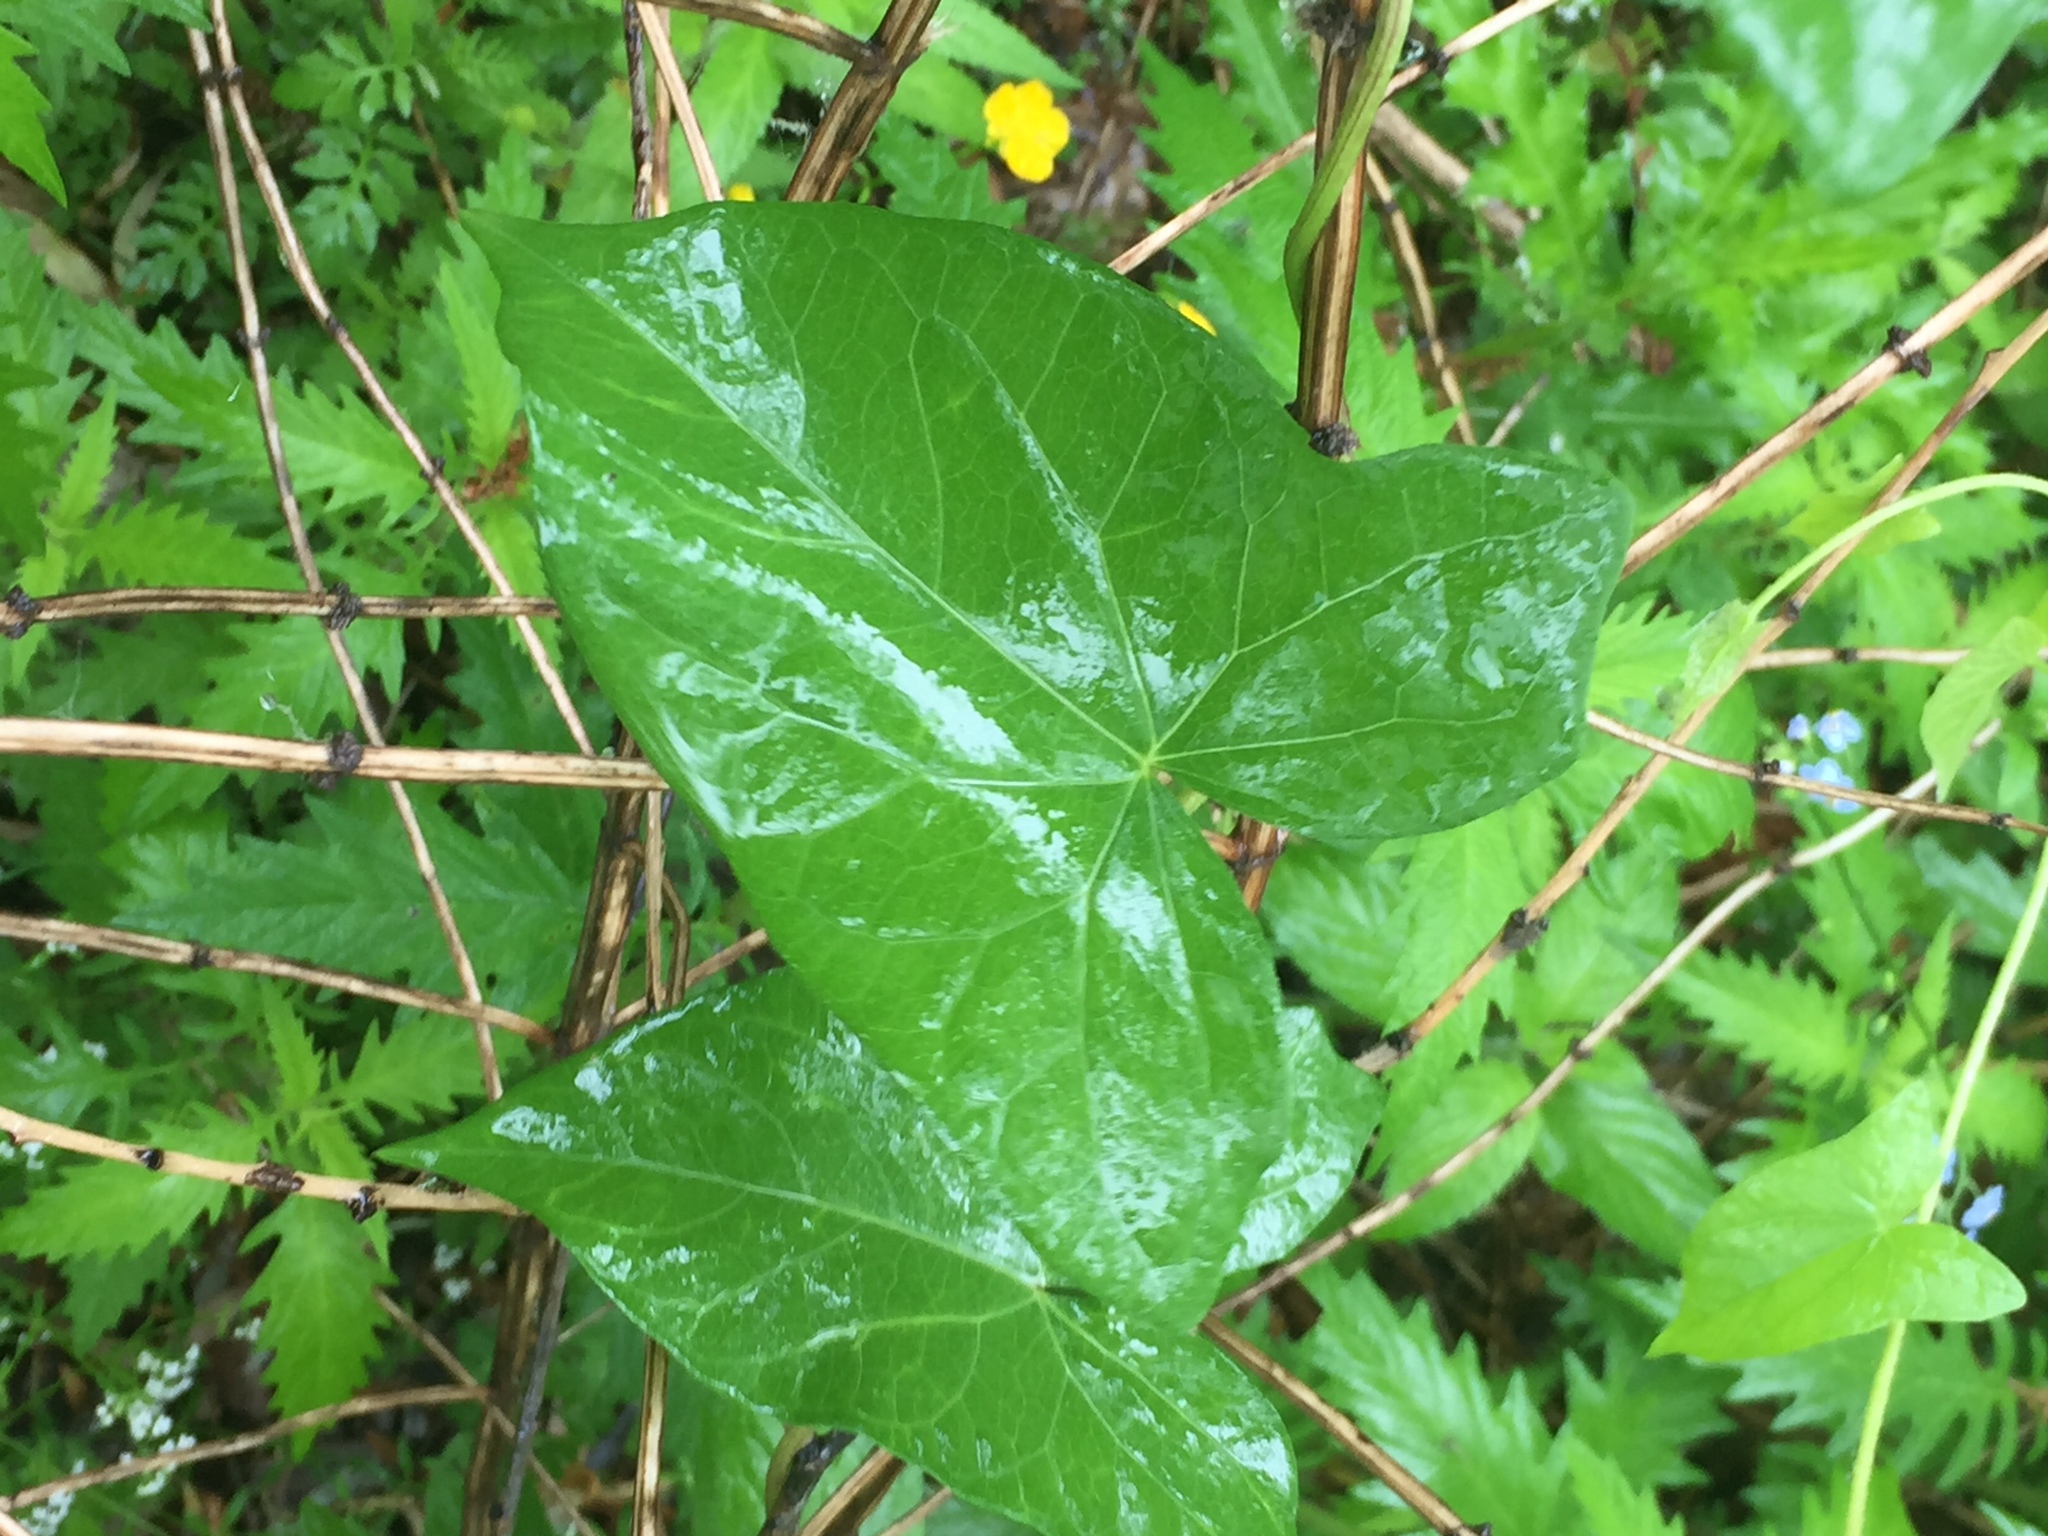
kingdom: Plantae
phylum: Tracheophyta
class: Magnoliopsida
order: Solanales
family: Convolvulaceae
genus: Calystegia
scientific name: Calystegia sepium
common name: Hedge bindweed
